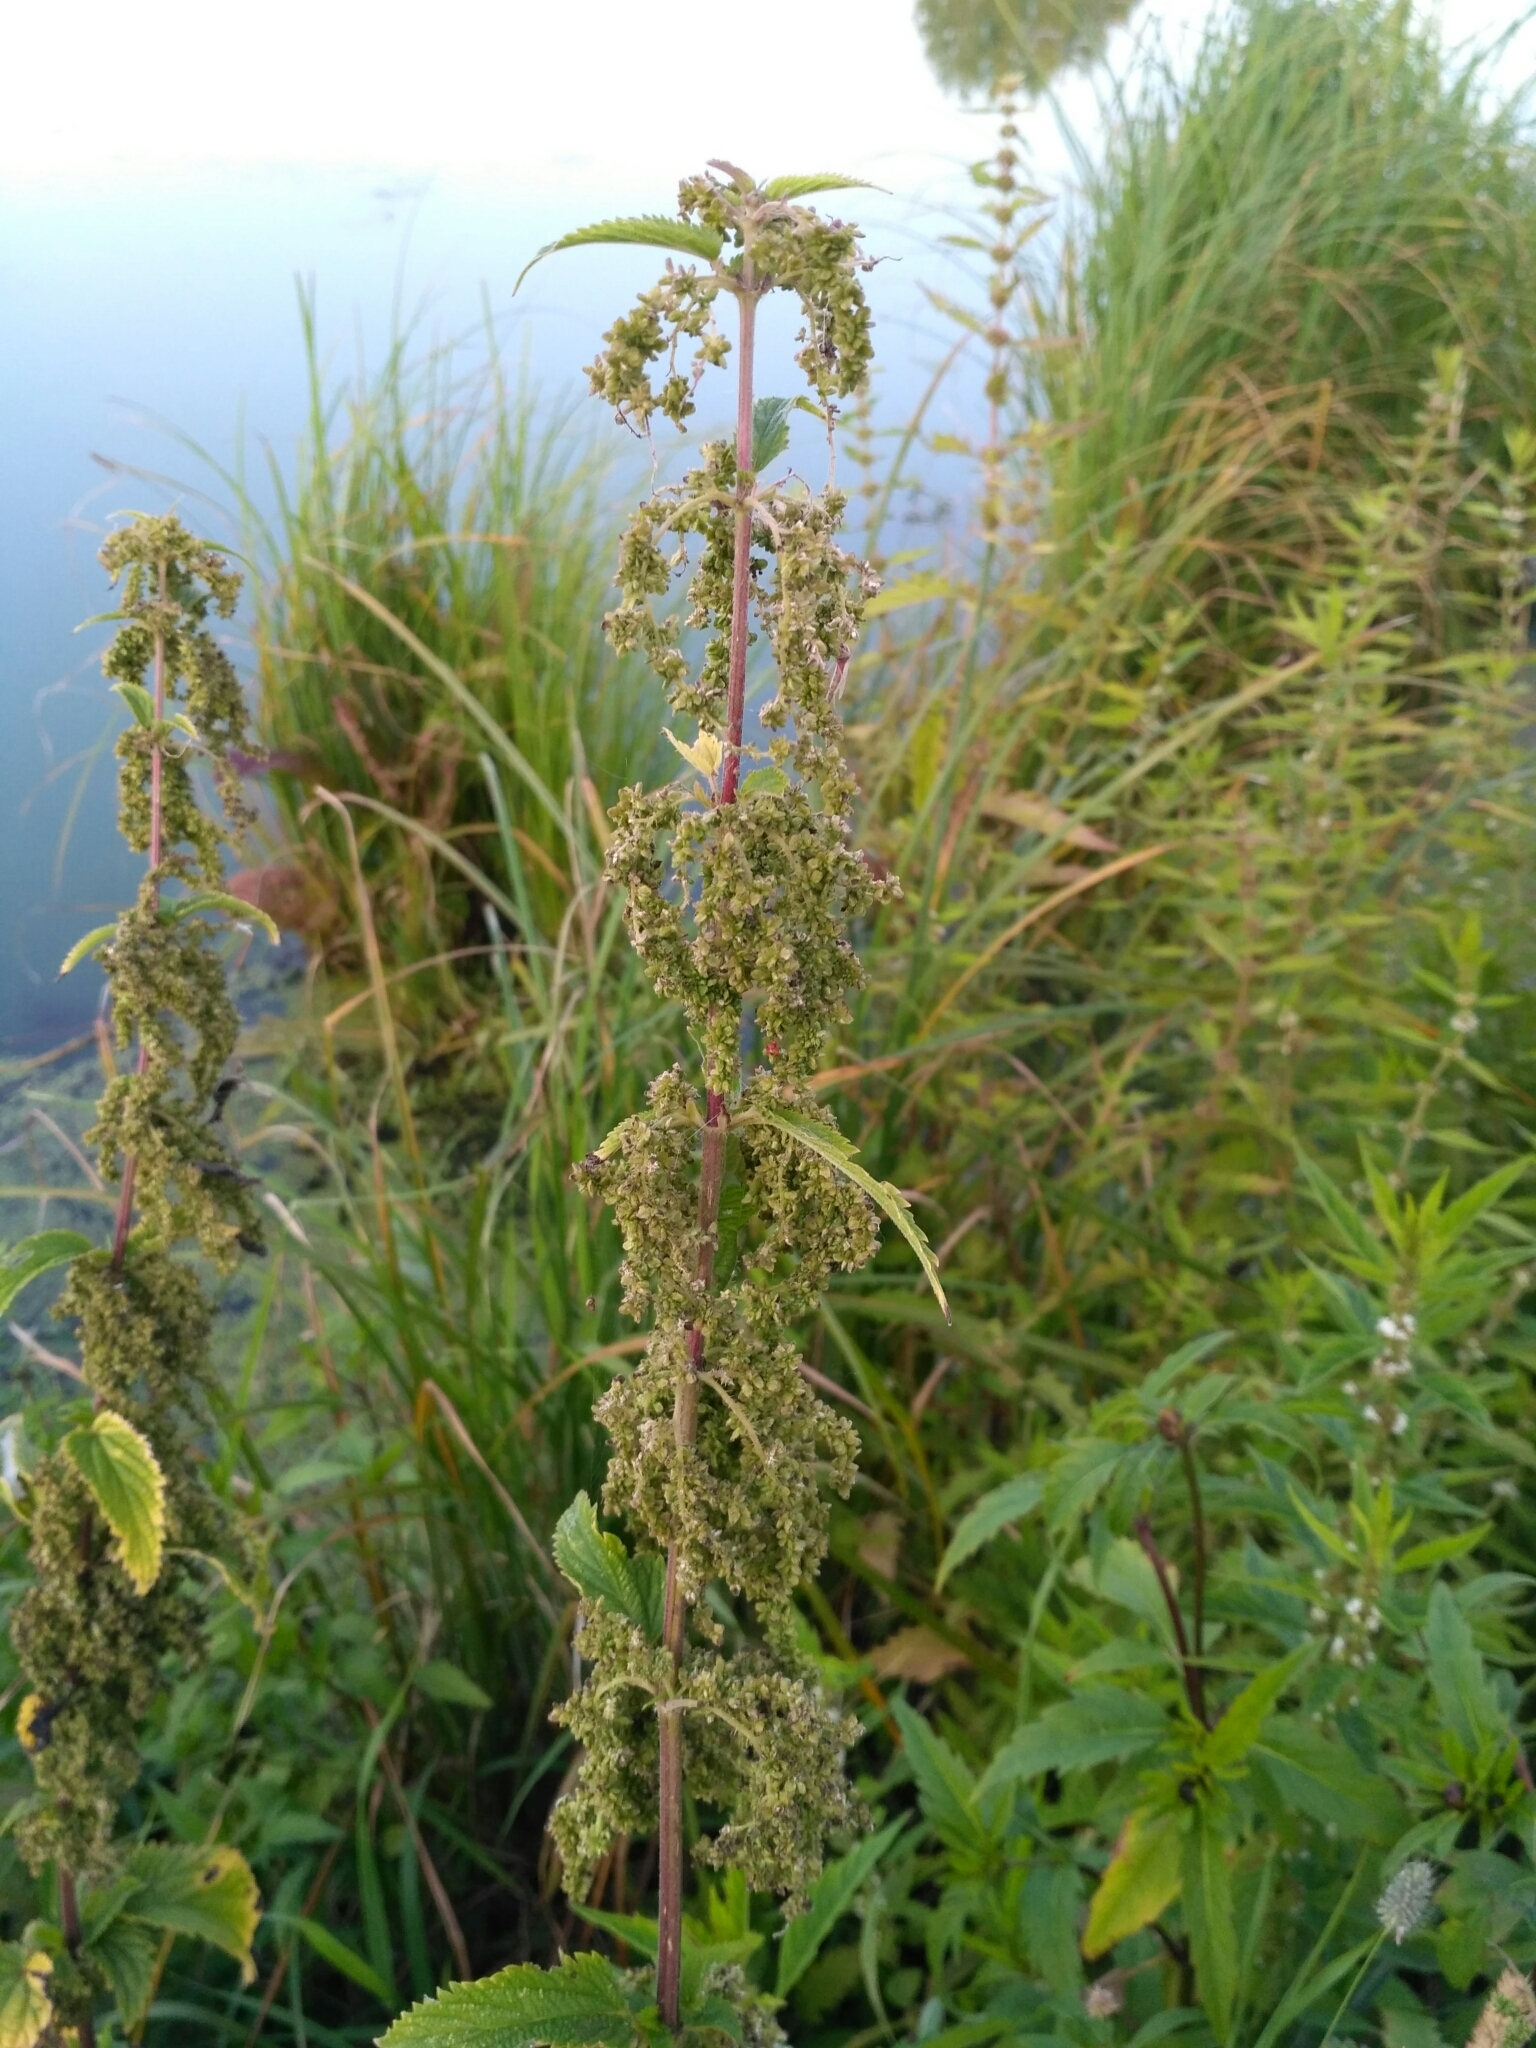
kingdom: Plantae
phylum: Tracheophyta
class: Magnoliopsida
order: Rosales
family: Urticaceae
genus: Urtica
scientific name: Urtica dioica
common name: Common nettle
